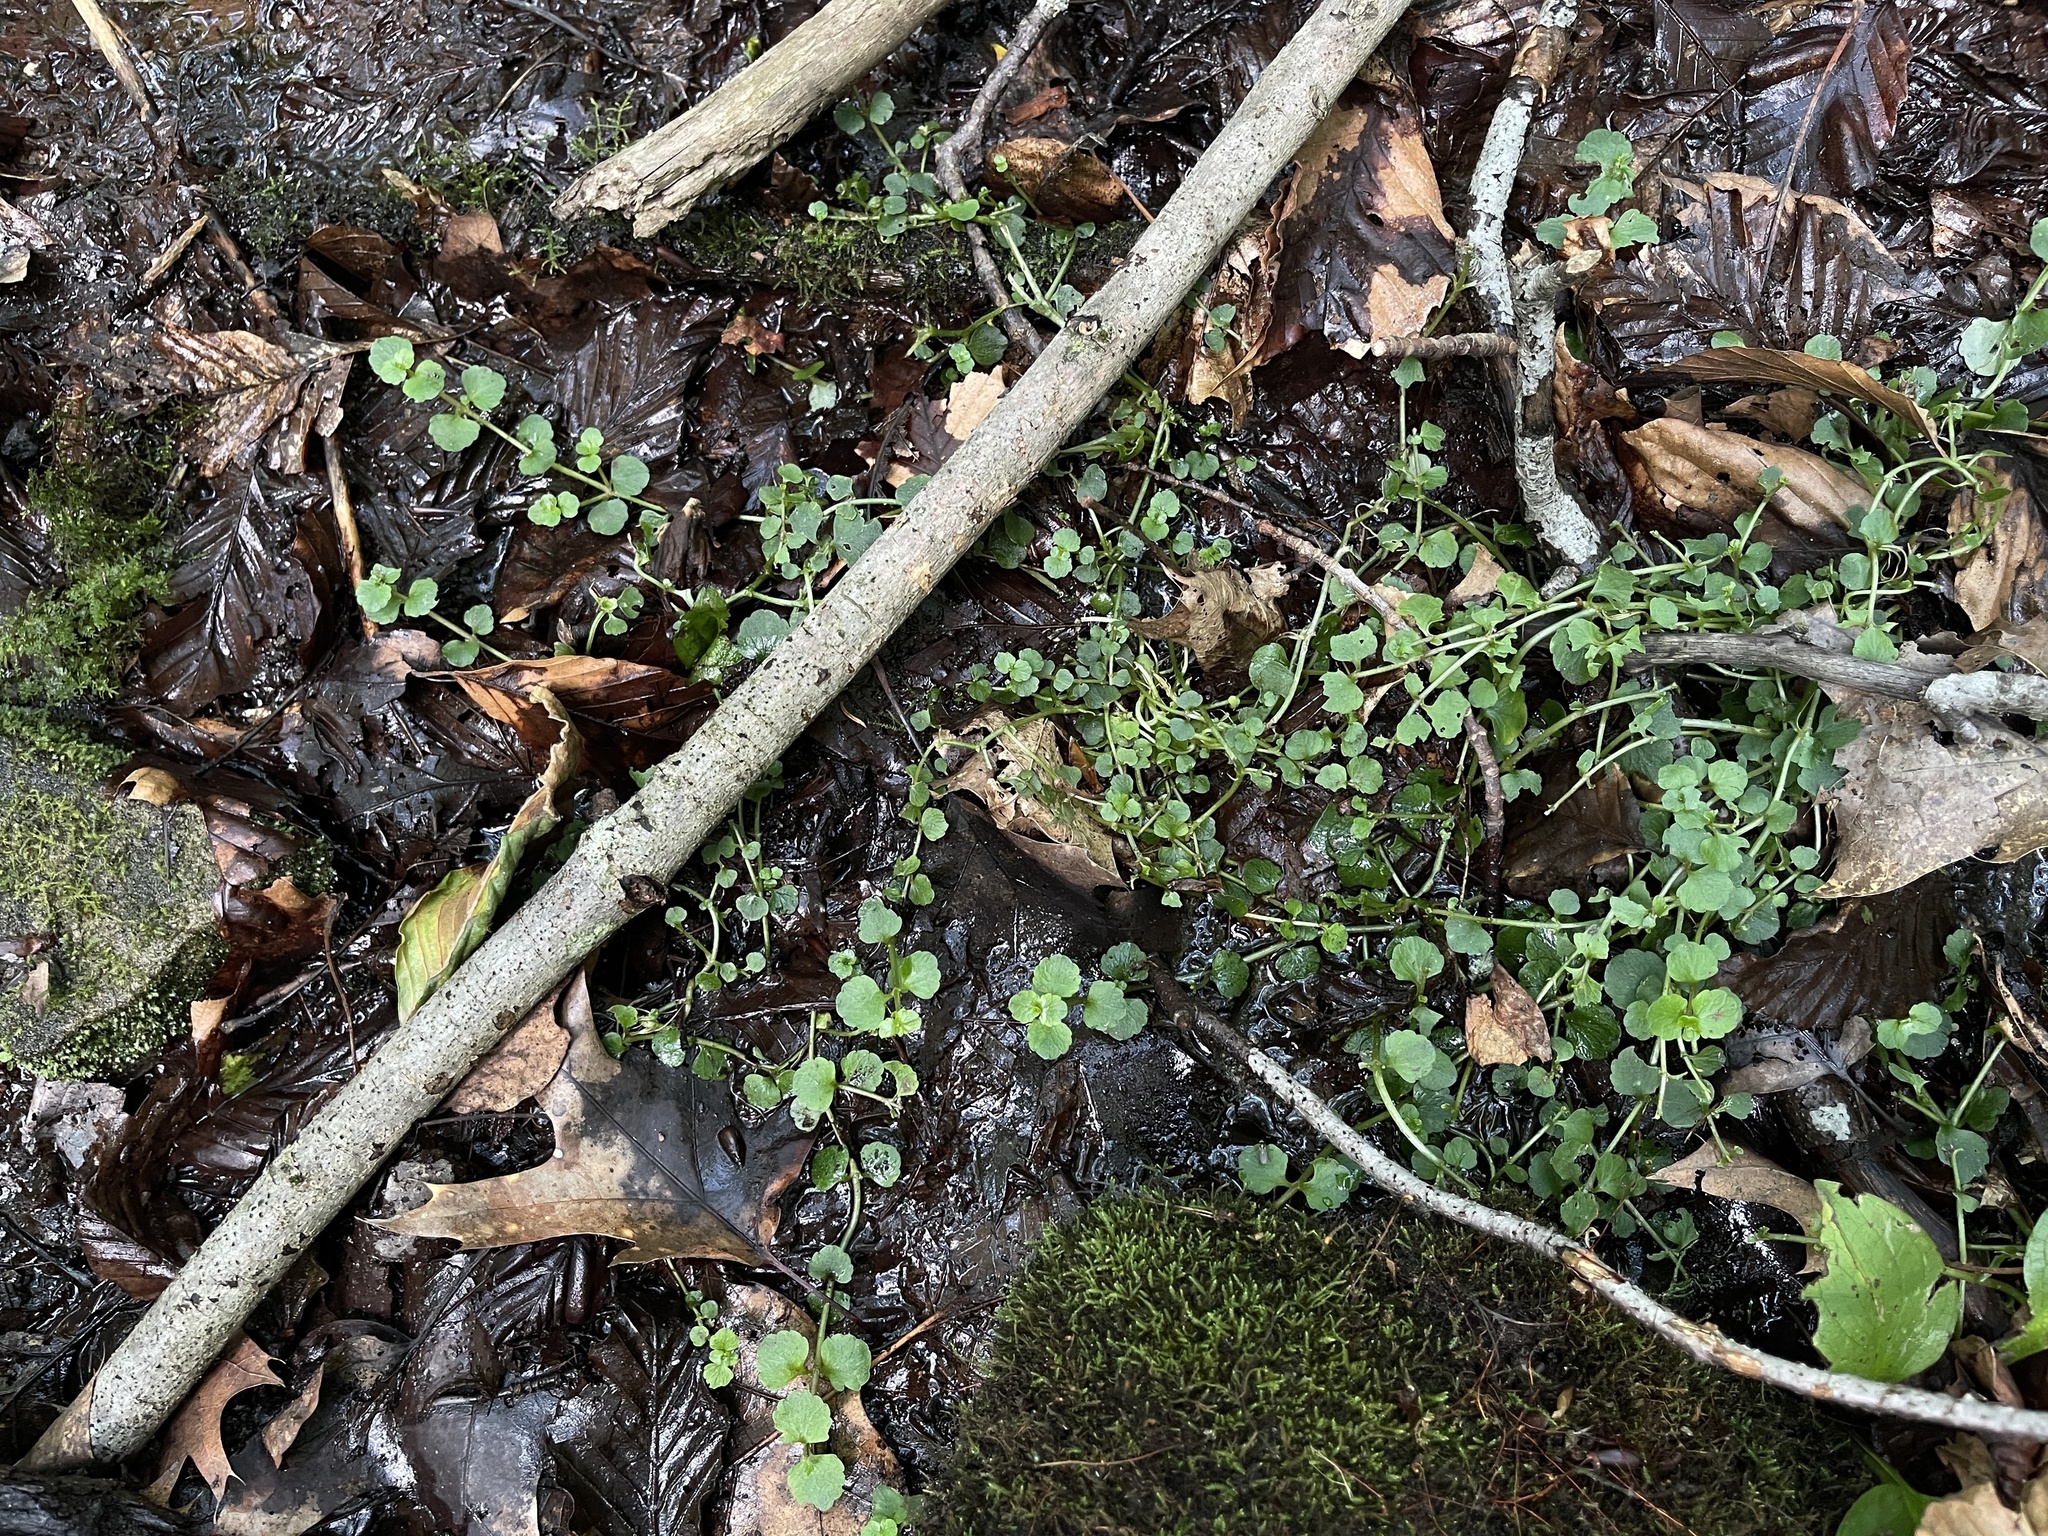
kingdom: Plantae
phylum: Tracheophyta
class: Magnoliopsida
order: Saxifragales
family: Saxifragaceae
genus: Chrysosplenium
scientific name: Chrysosplenium americanum
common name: American golden-saxifrage
